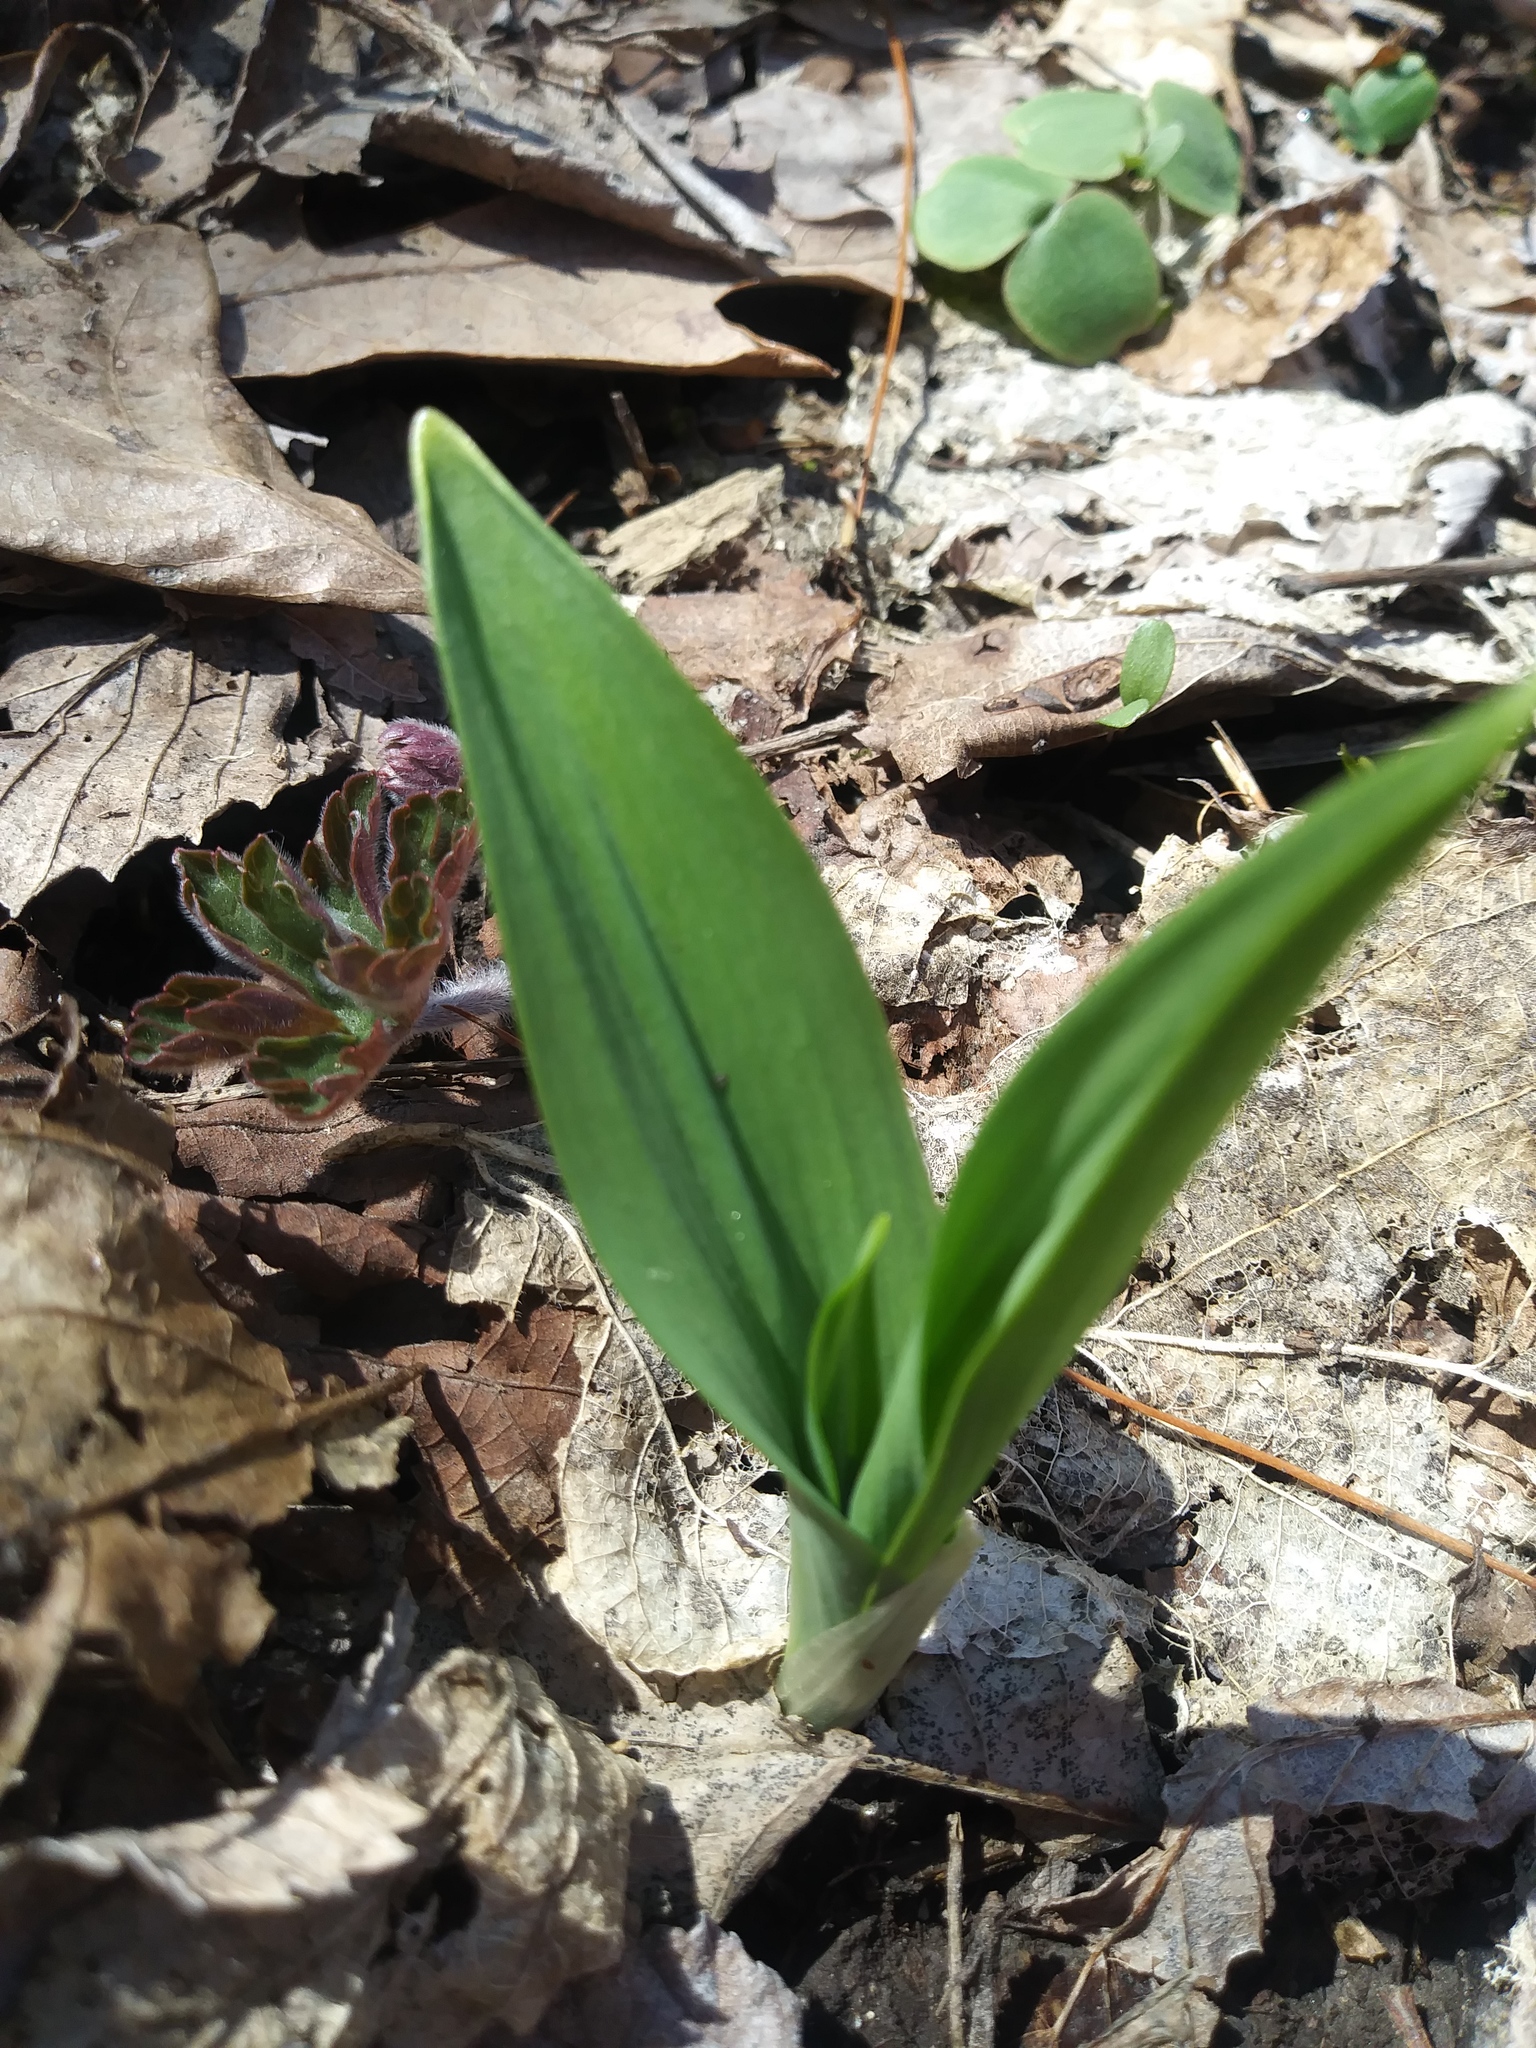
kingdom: Plantae
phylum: Tracheophyta
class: Liliopsida
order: Asparagales
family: Amaryllidaceae
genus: Allium
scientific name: Allium tricoccum
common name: Ramp
